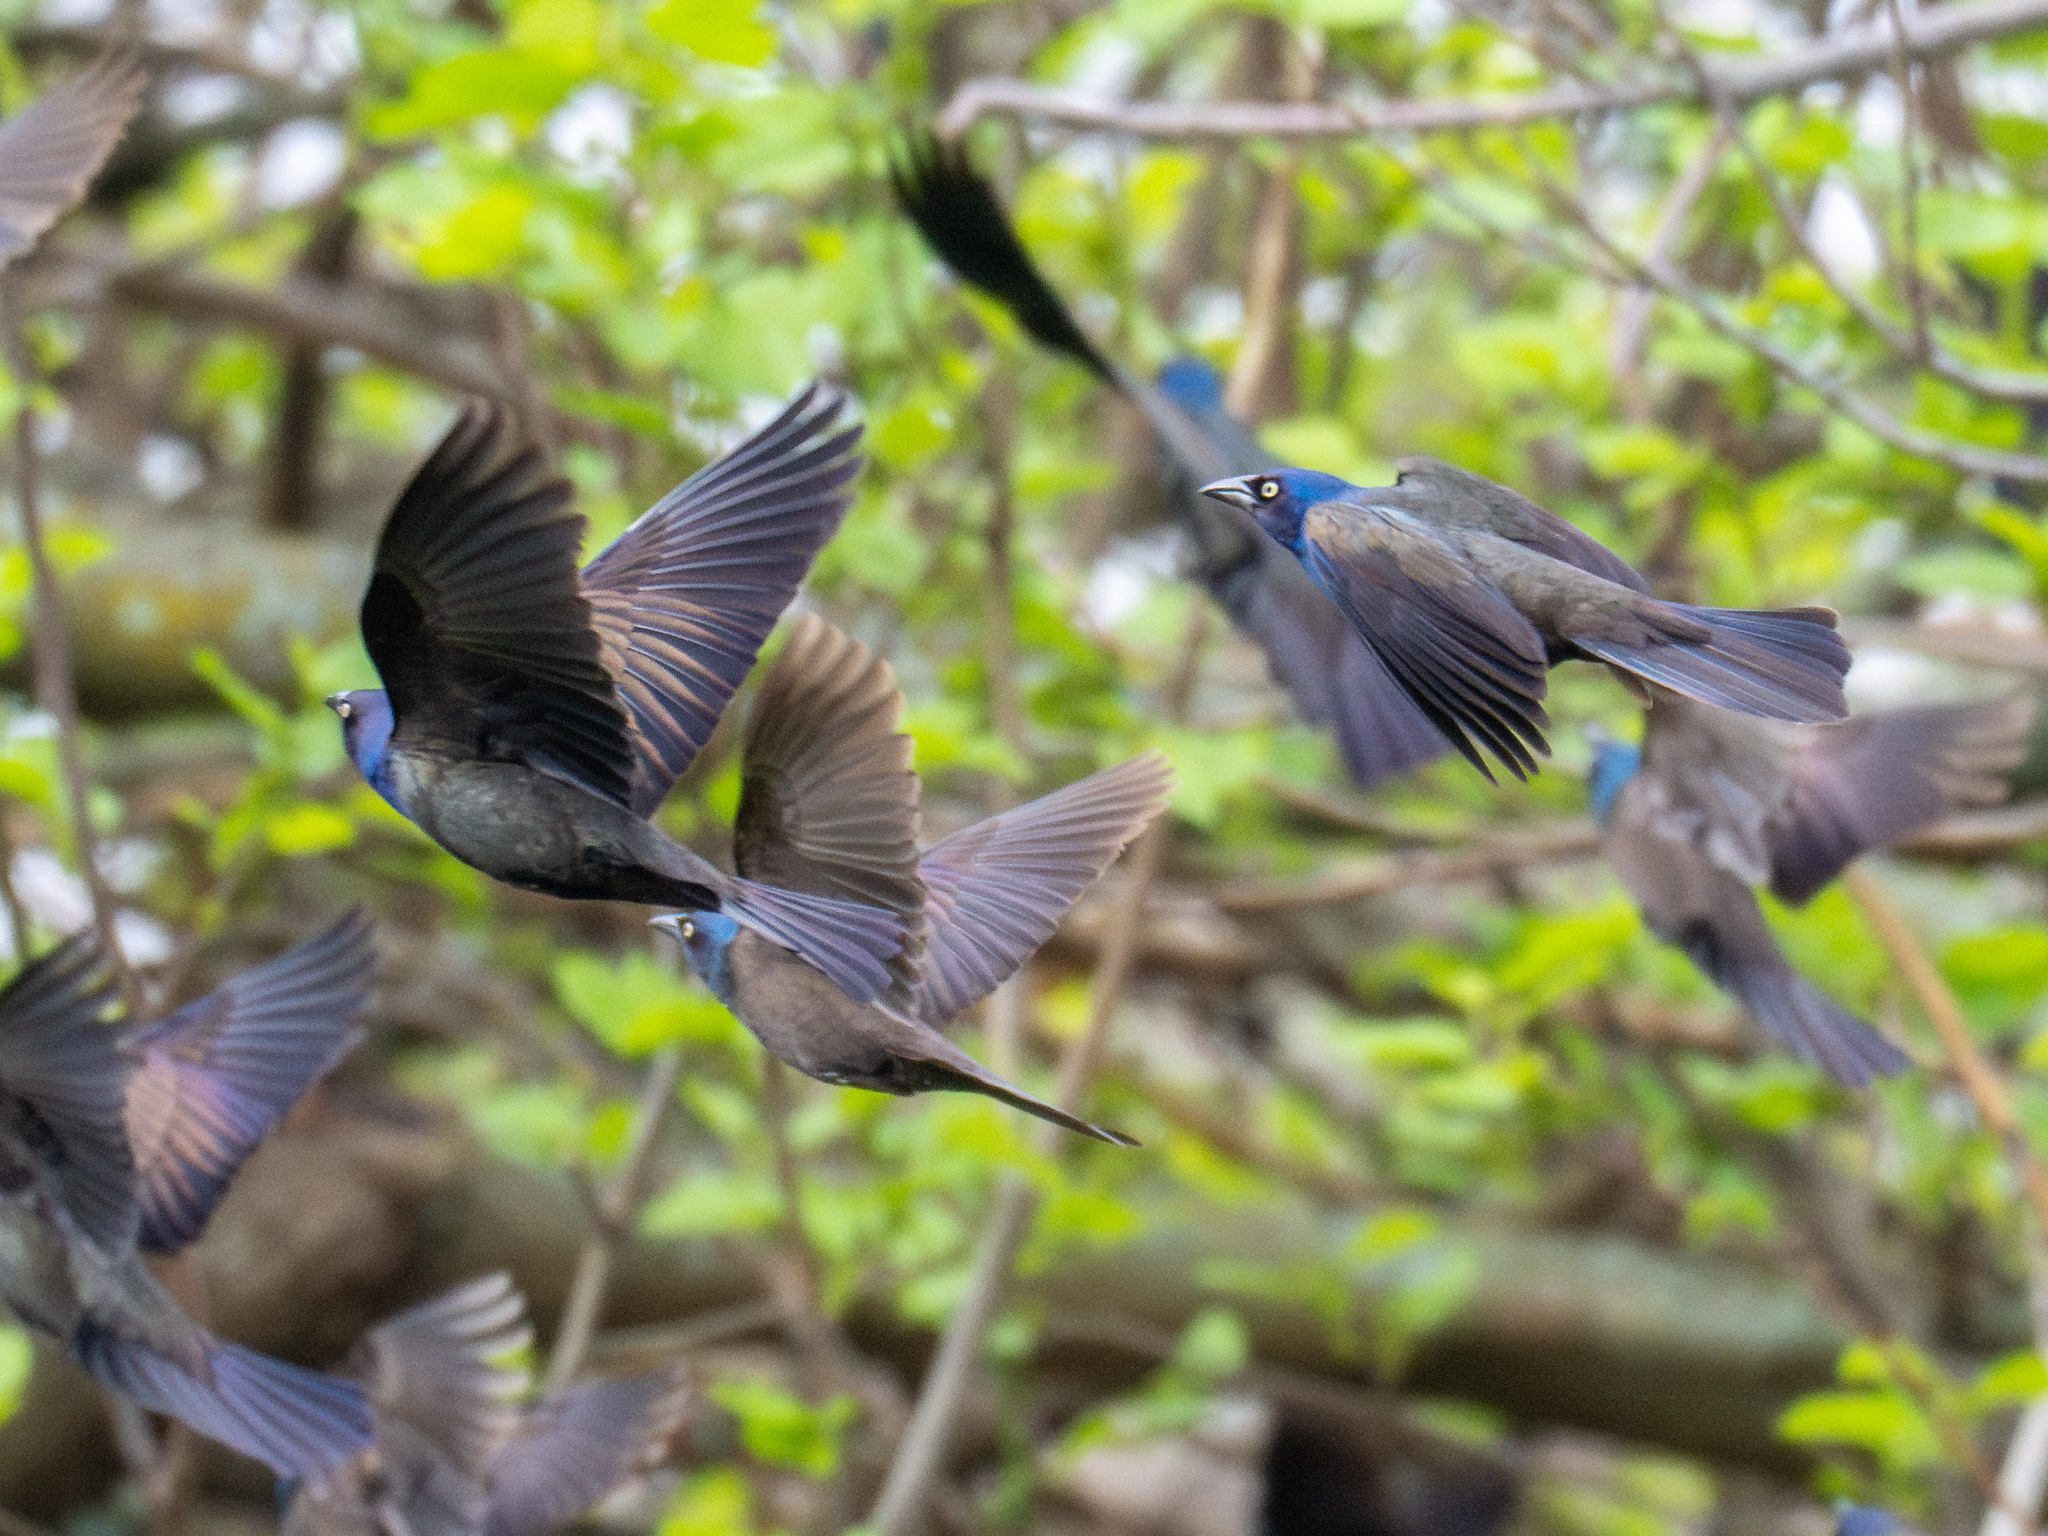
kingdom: Animalia
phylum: Chordata
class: Aves
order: Passeriformes
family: Icteridae
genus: Quiscalus
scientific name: Quiscalus quiscula
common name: Common grackle
